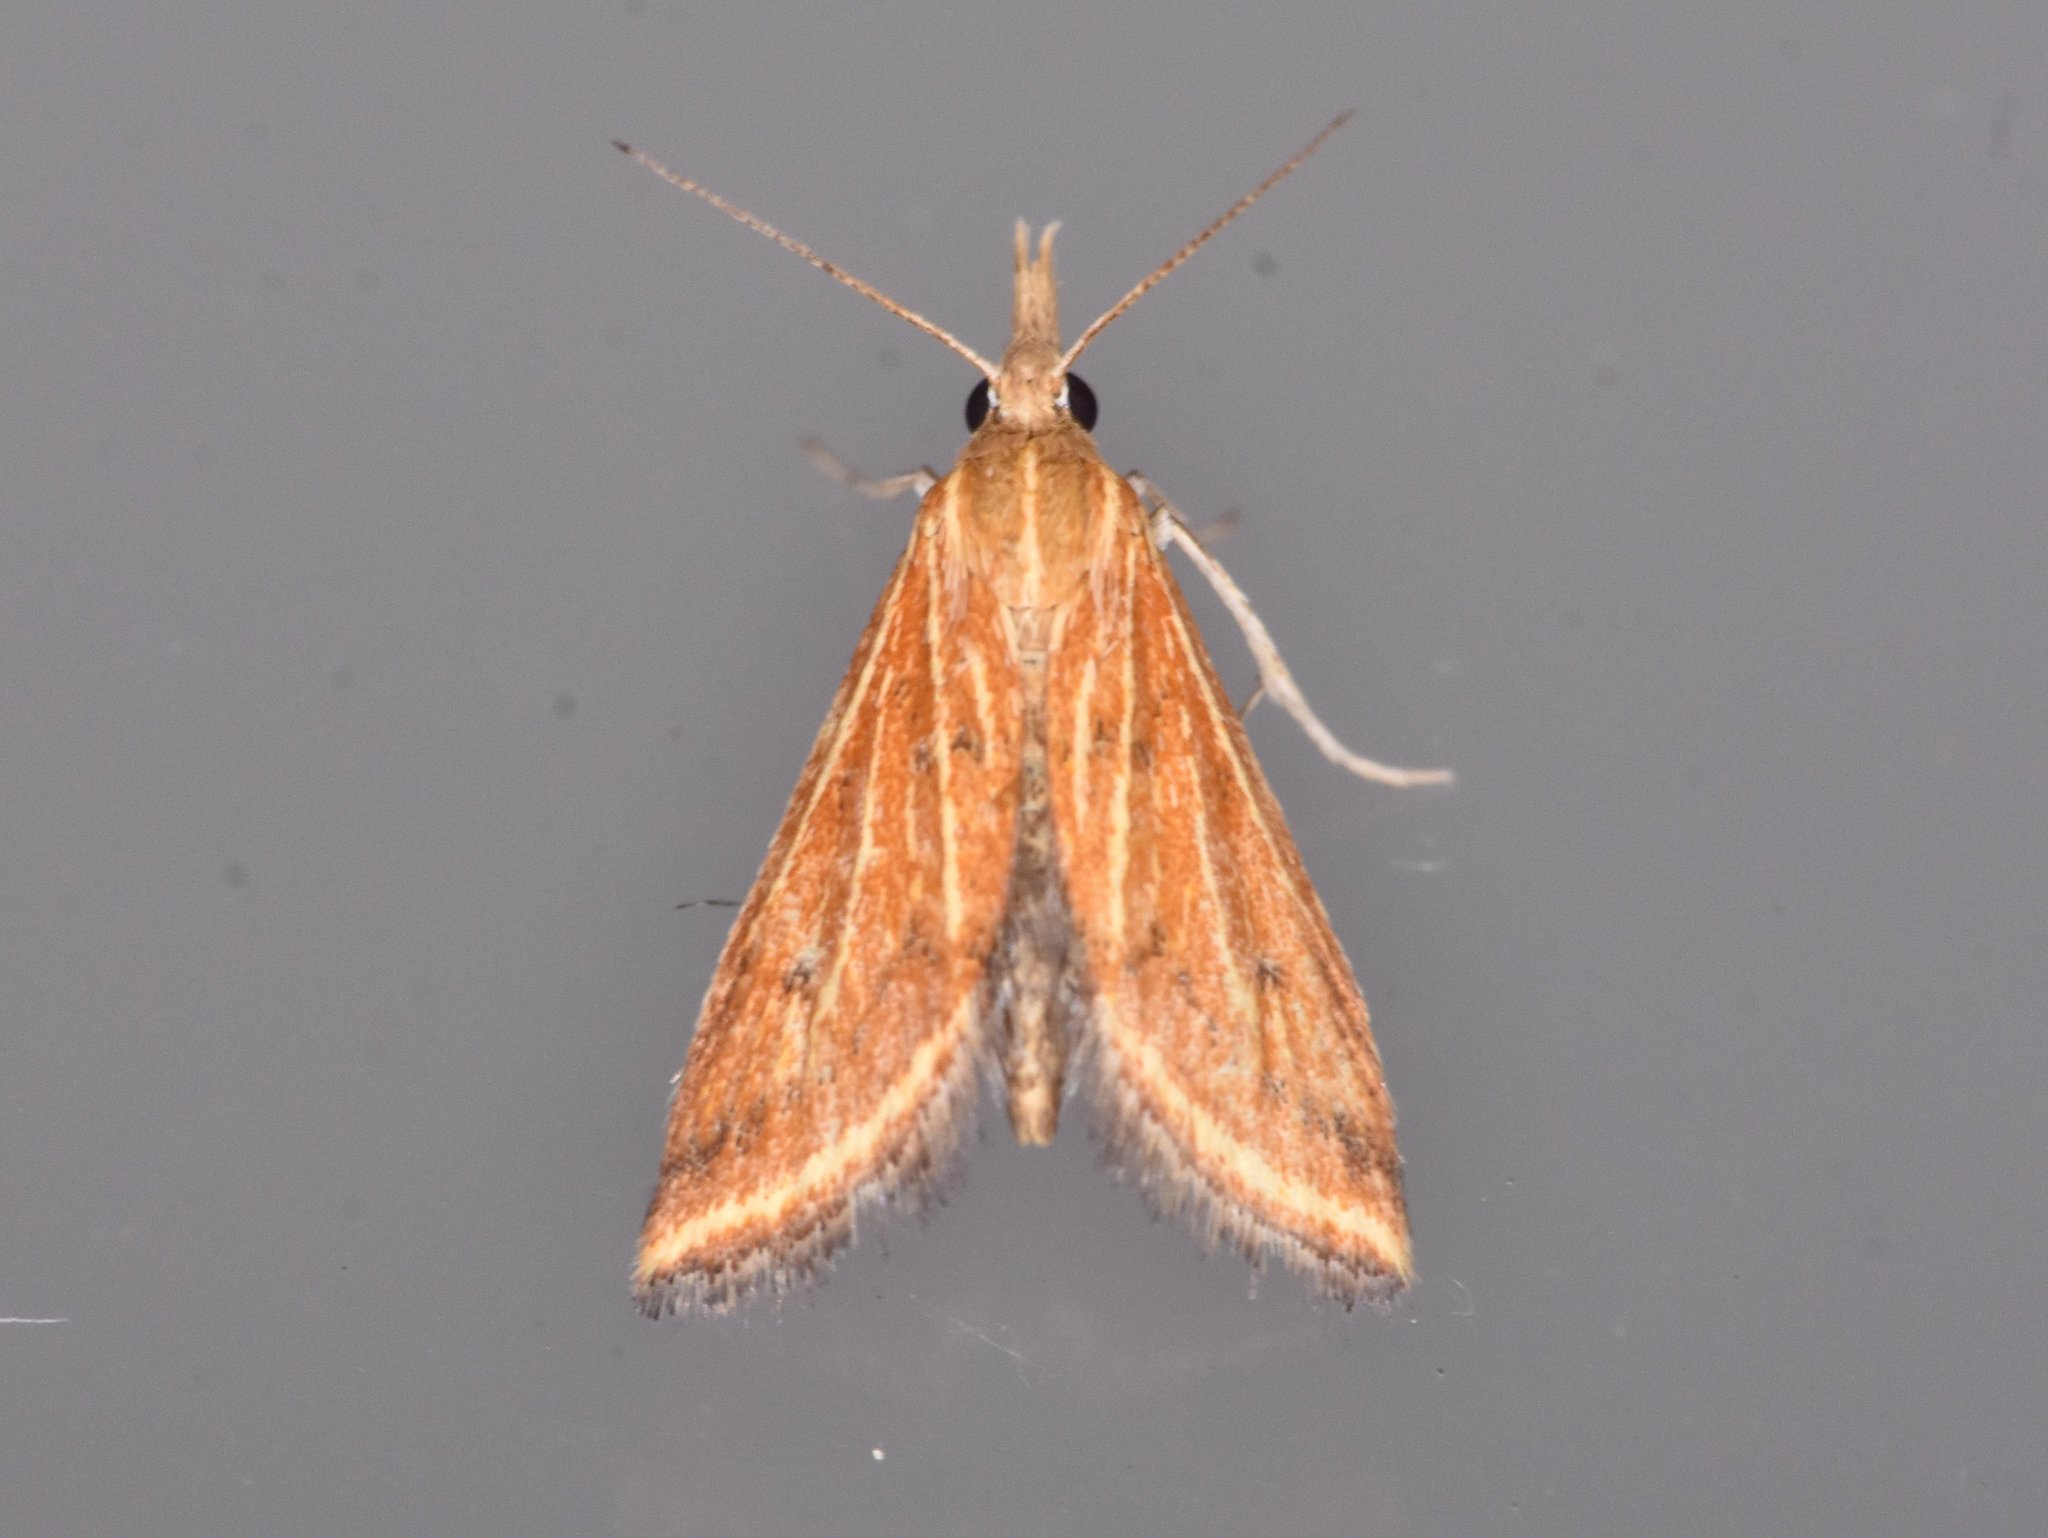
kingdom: Animalia
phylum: Arthropoda
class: Insecta
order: Lepidoptera
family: Crambidae
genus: Microtheoris
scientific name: Microtheoris ophionalis
